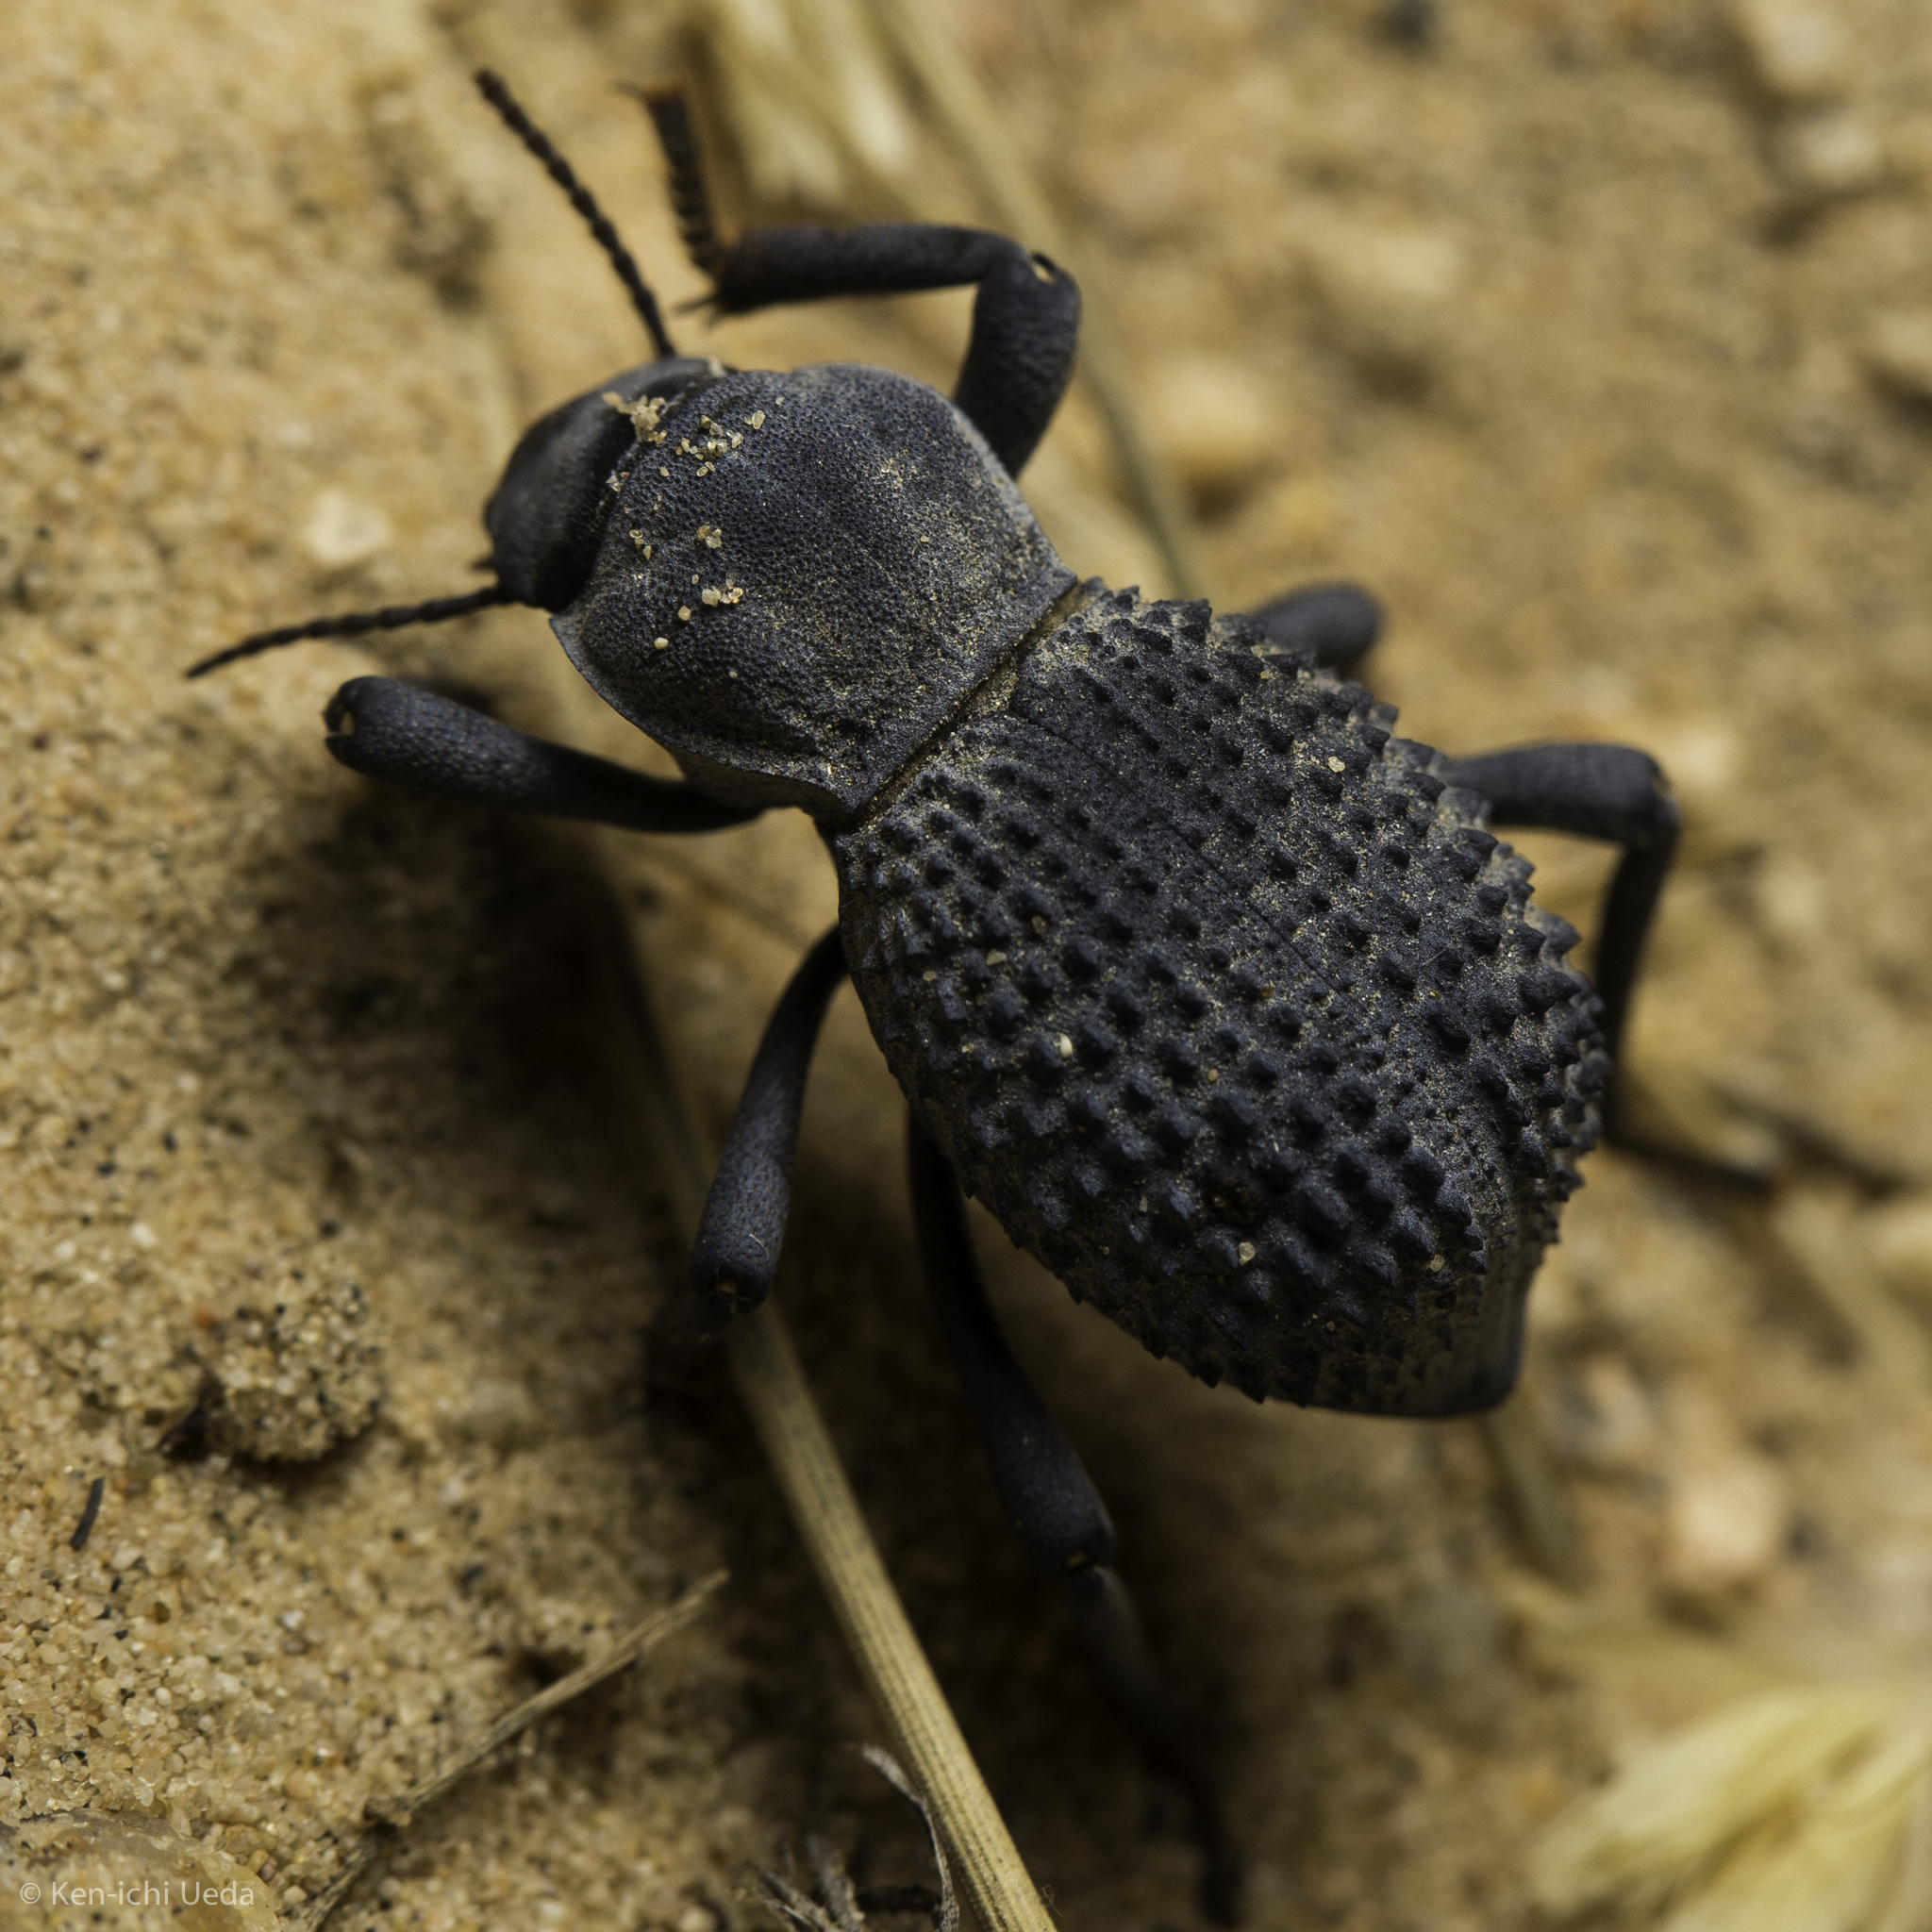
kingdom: Animalia
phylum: Arthropoda
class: Insecta
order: Coleoptera
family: Tenebrionidae
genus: Asbolus
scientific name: Asbolus verrucosus
